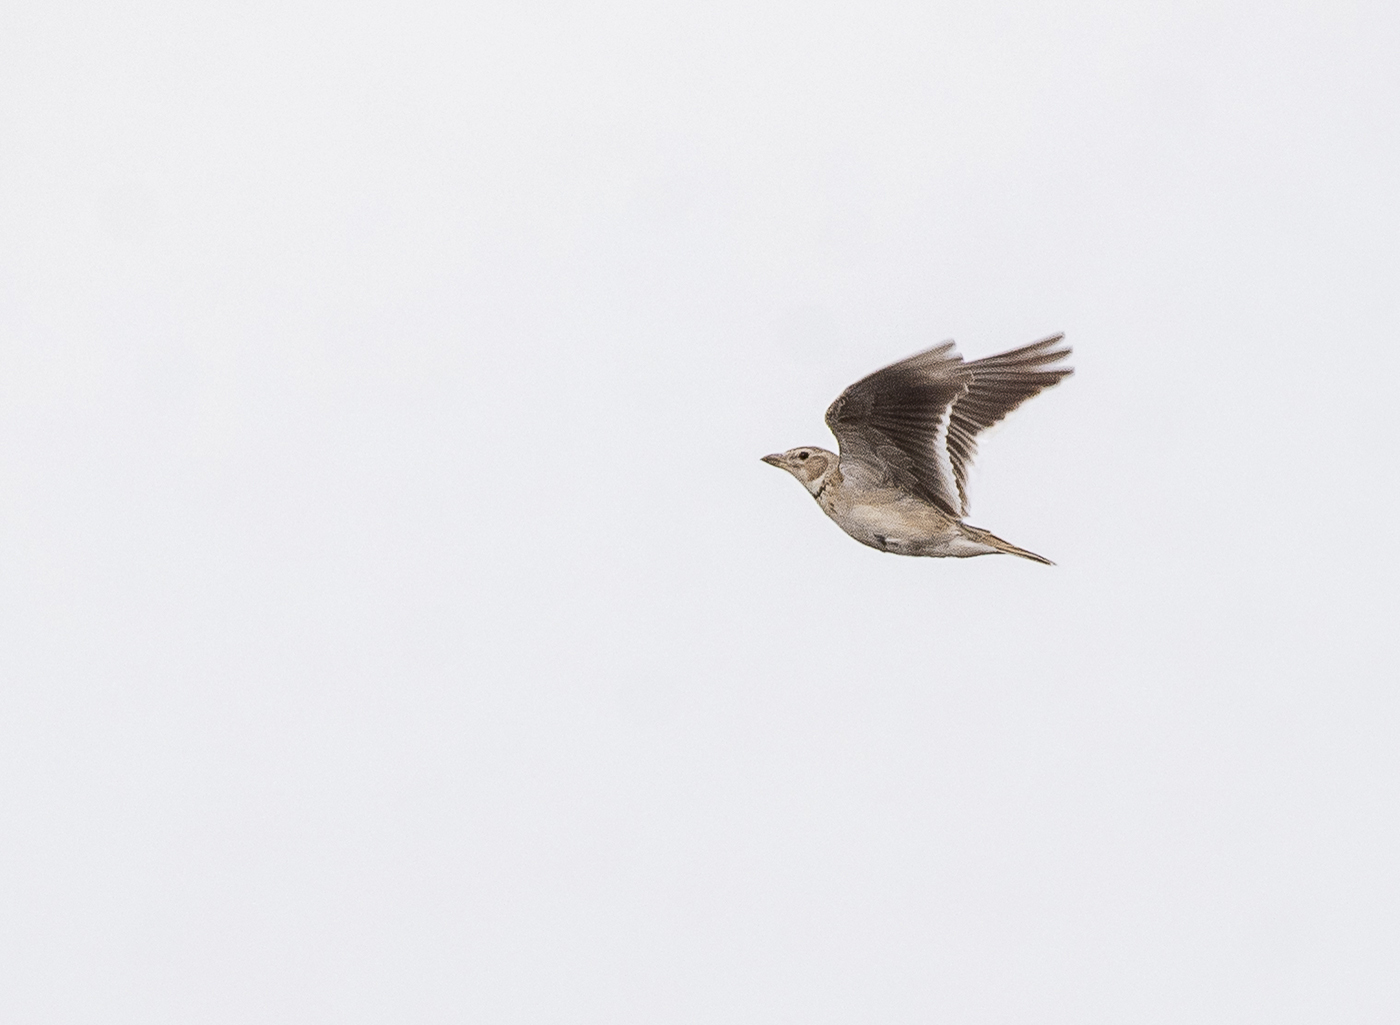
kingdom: Animalia
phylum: Chordata
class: Aves
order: Passeriformes
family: Alaudidae
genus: Melanocorypha
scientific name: Melanocorypha calandra
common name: Calandra lark
